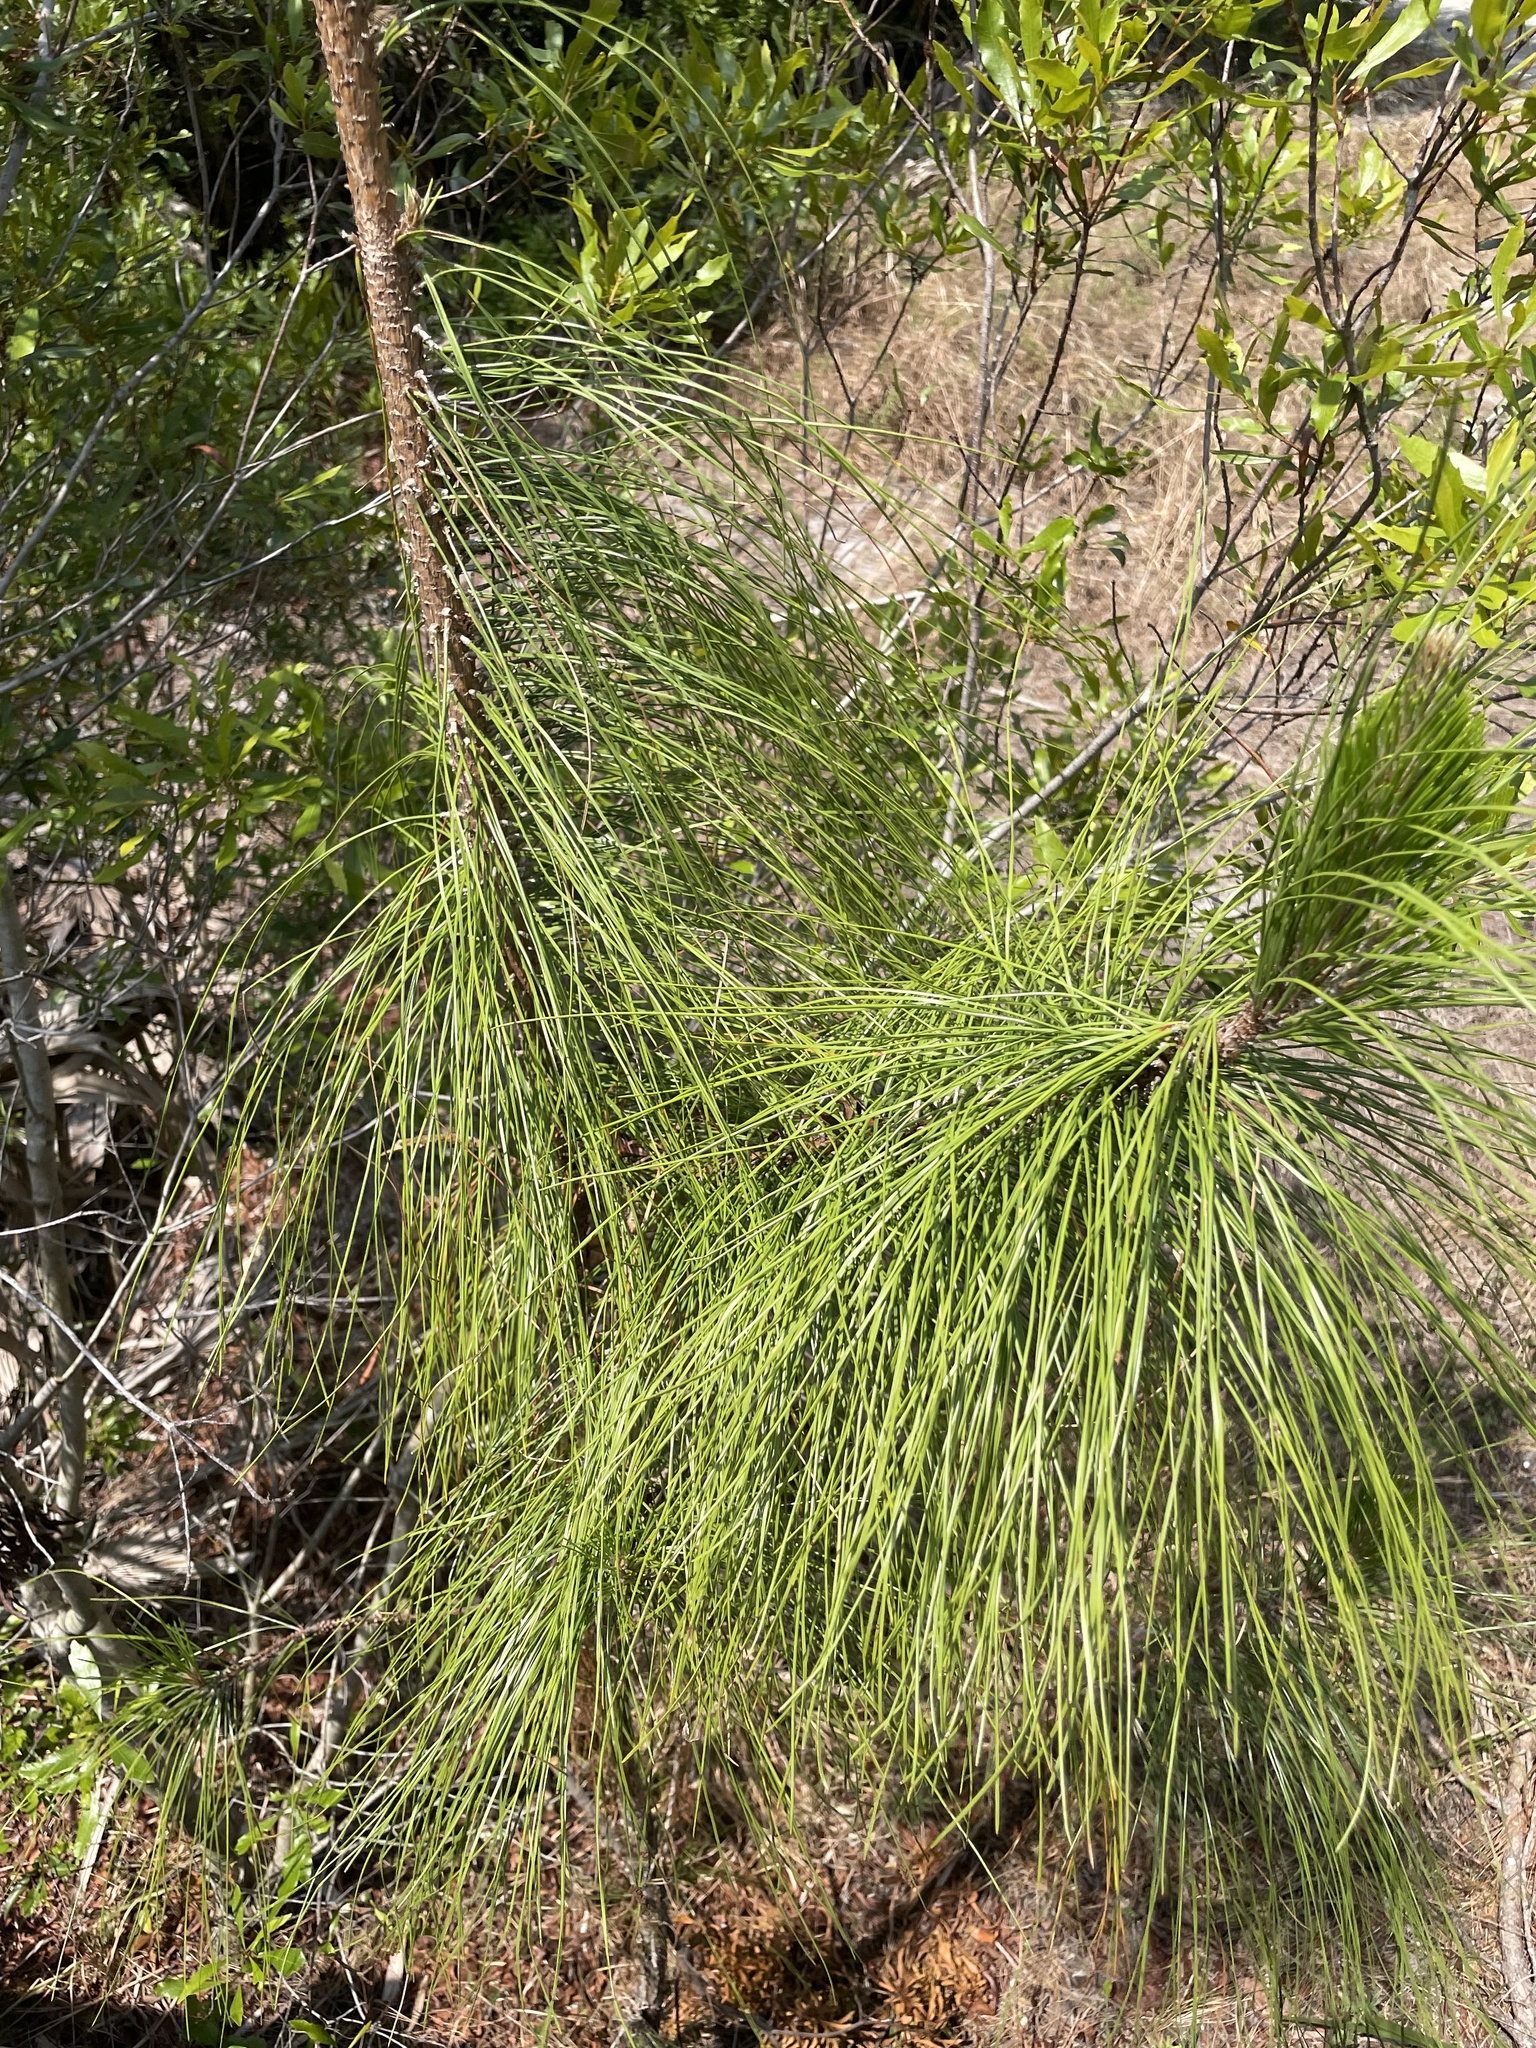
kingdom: Plantae
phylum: Tracheophyta
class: Pinopsida
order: Pinales
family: Pinaceae
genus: Pinus
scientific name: Pinus elliottii
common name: Slash pine
